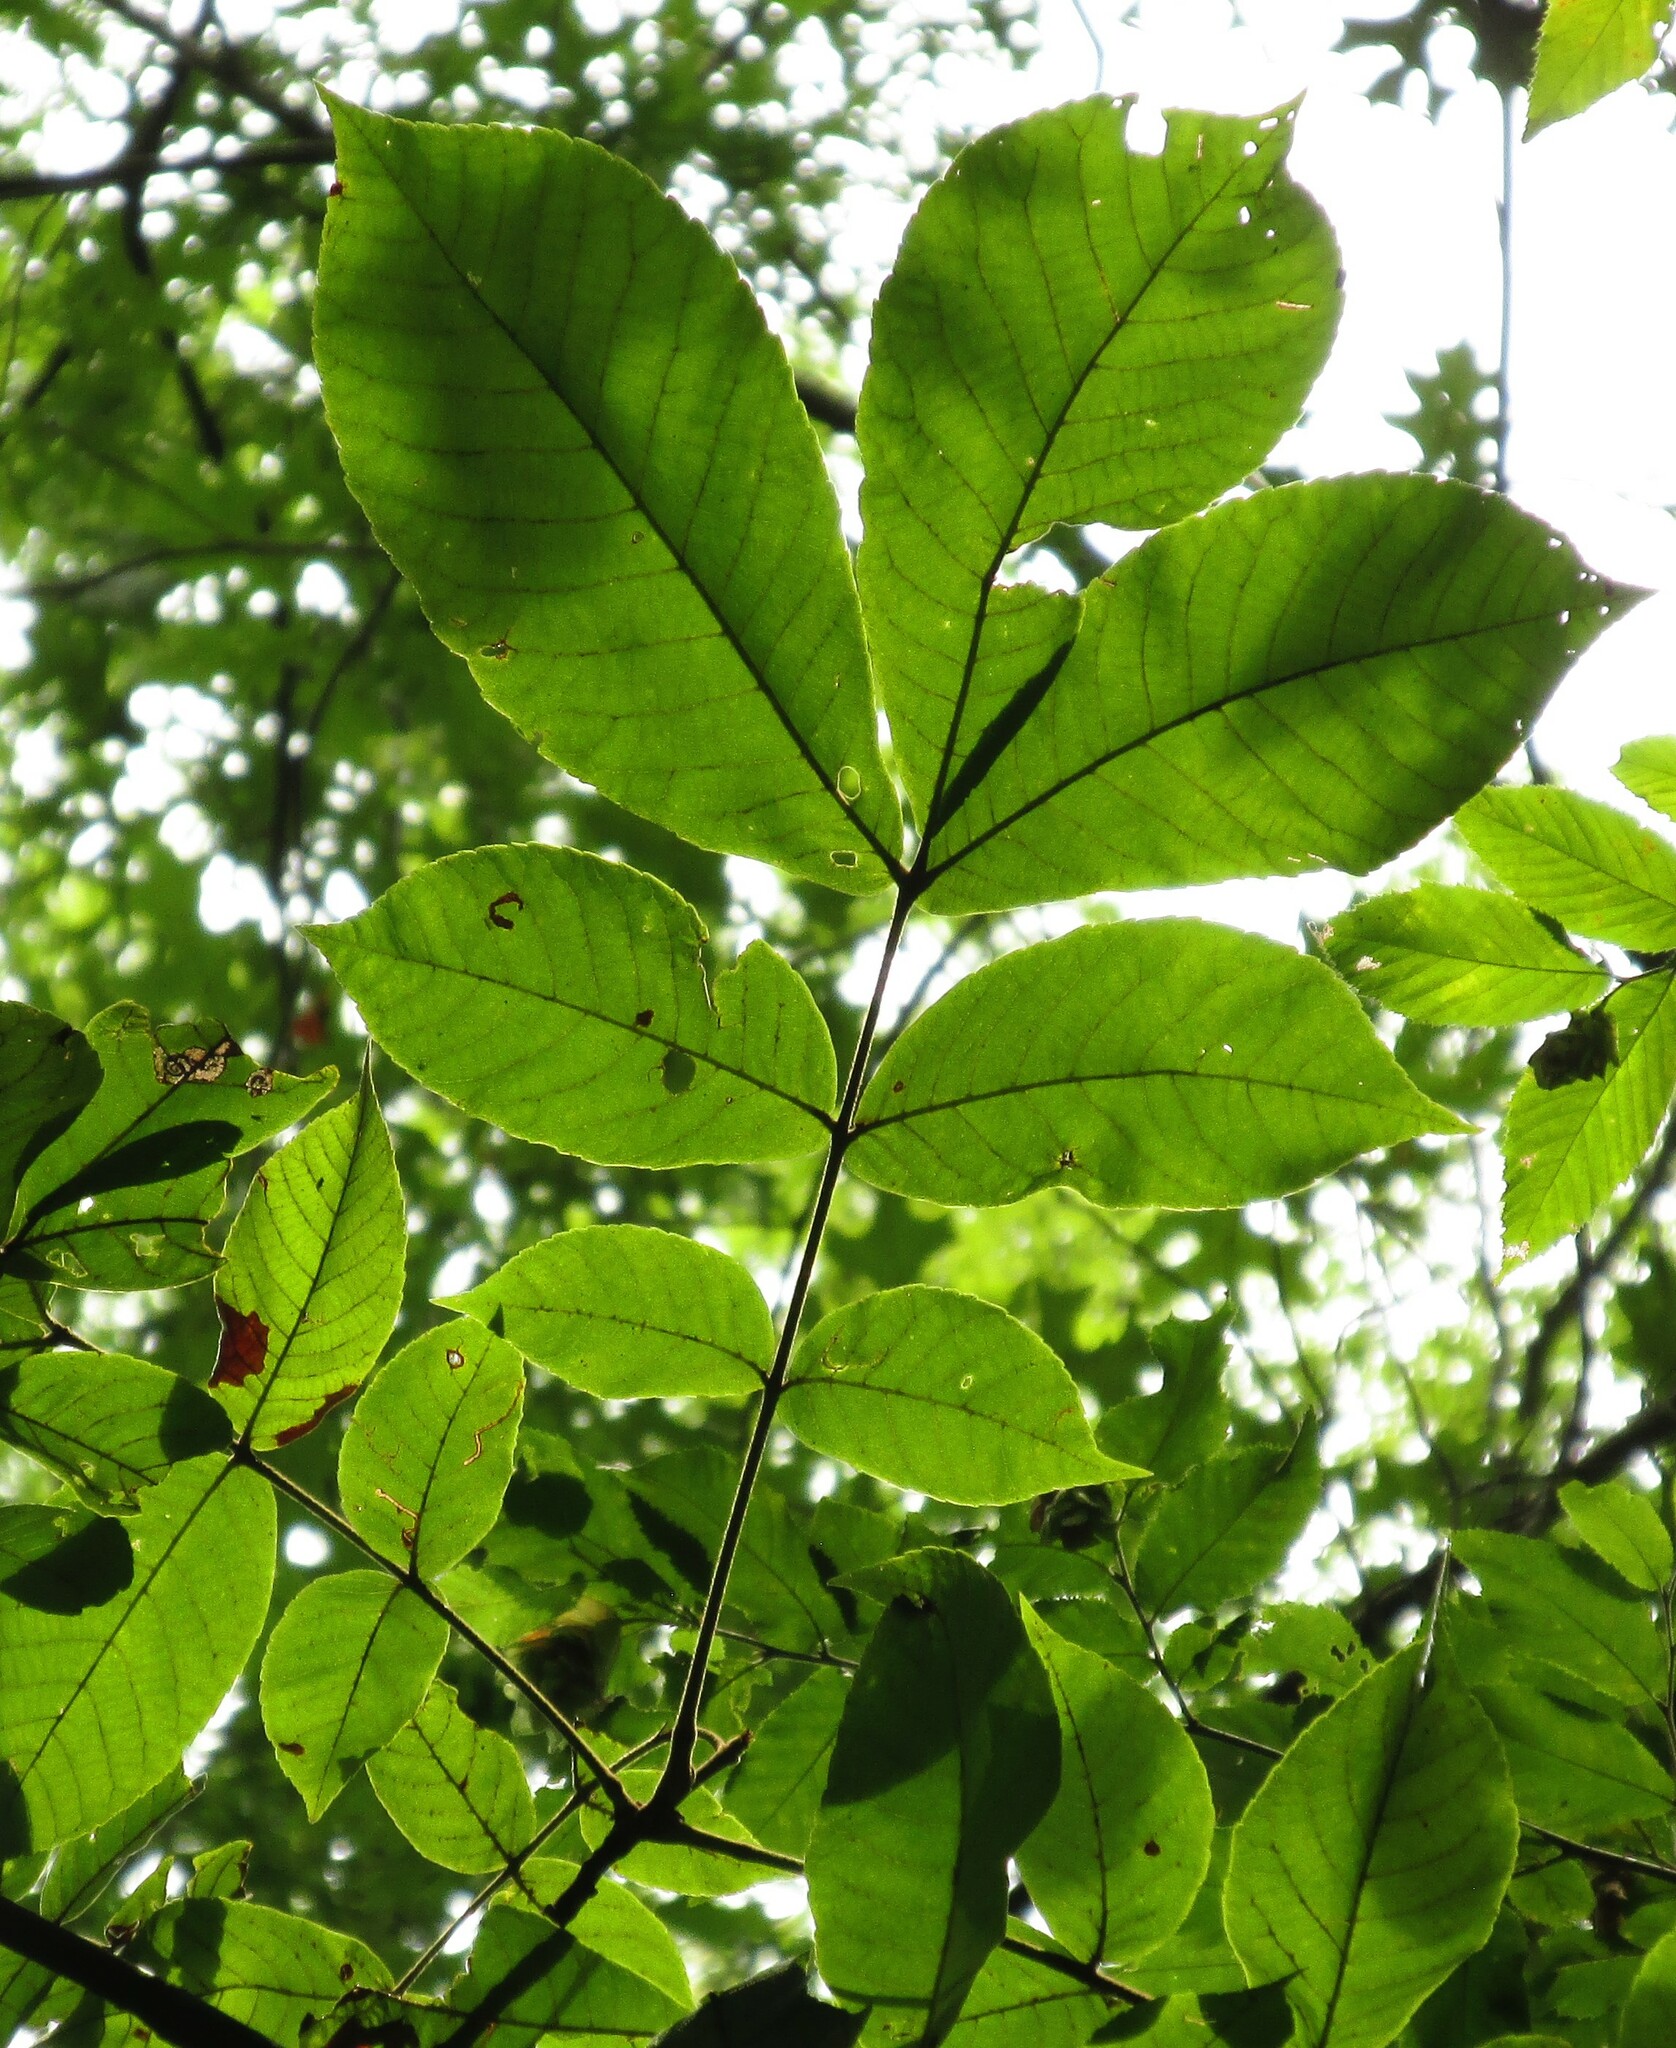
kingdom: Plantae
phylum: Tracheophyta
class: Magnoliopsida
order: Fagales
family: Juglandaceae
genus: Carya
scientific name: Carya alba
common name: Mockernut hickory
